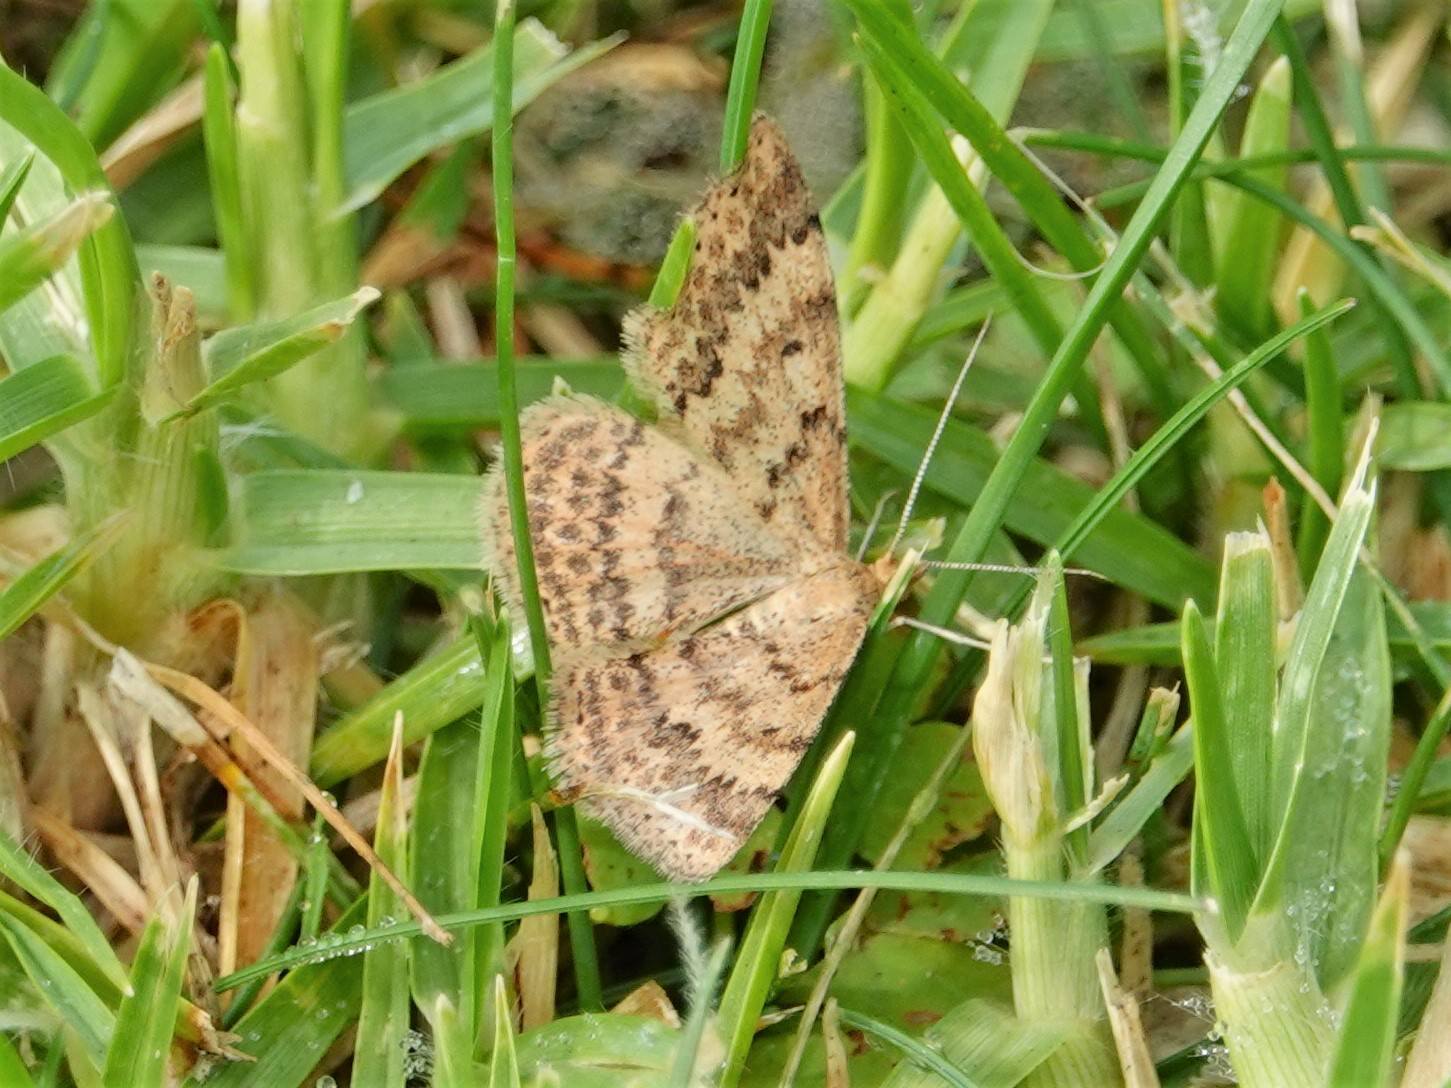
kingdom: Animalia
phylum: Arthropoda
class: Insecta
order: Lepidoptera
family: Geometridae
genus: Scopula
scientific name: Scopula rubraria
